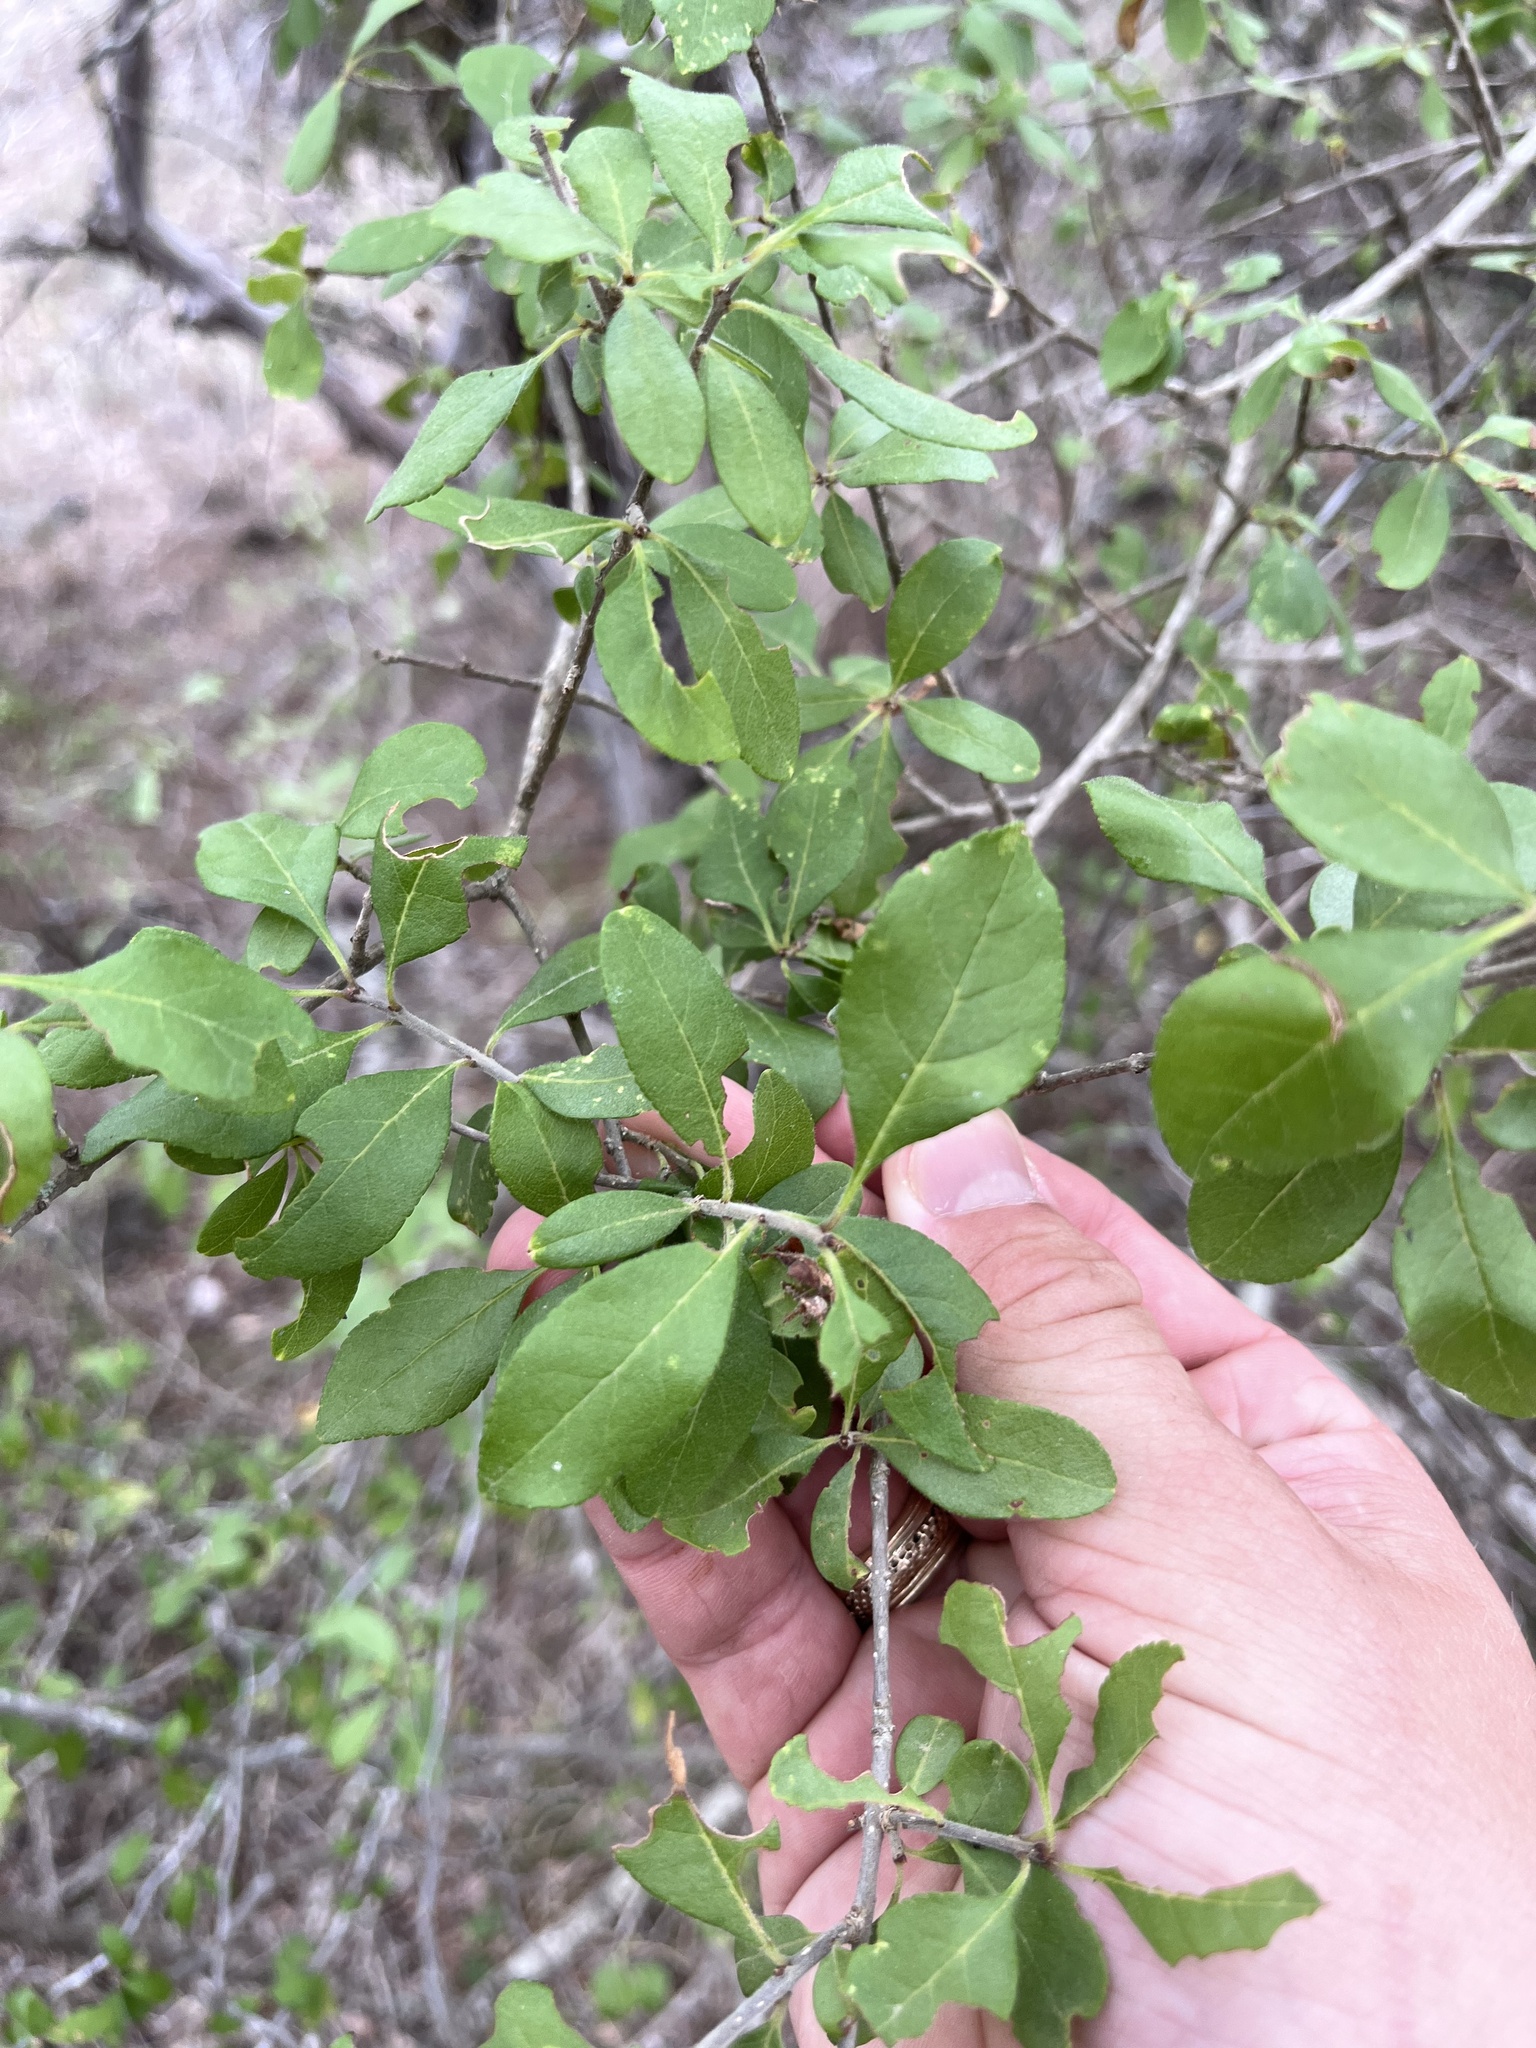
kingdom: Plantae
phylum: Tracheophyta
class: Magnoliopsida
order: Lamiales
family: Oleaceae
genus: Forestiera
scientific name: Forestiera pubescens
